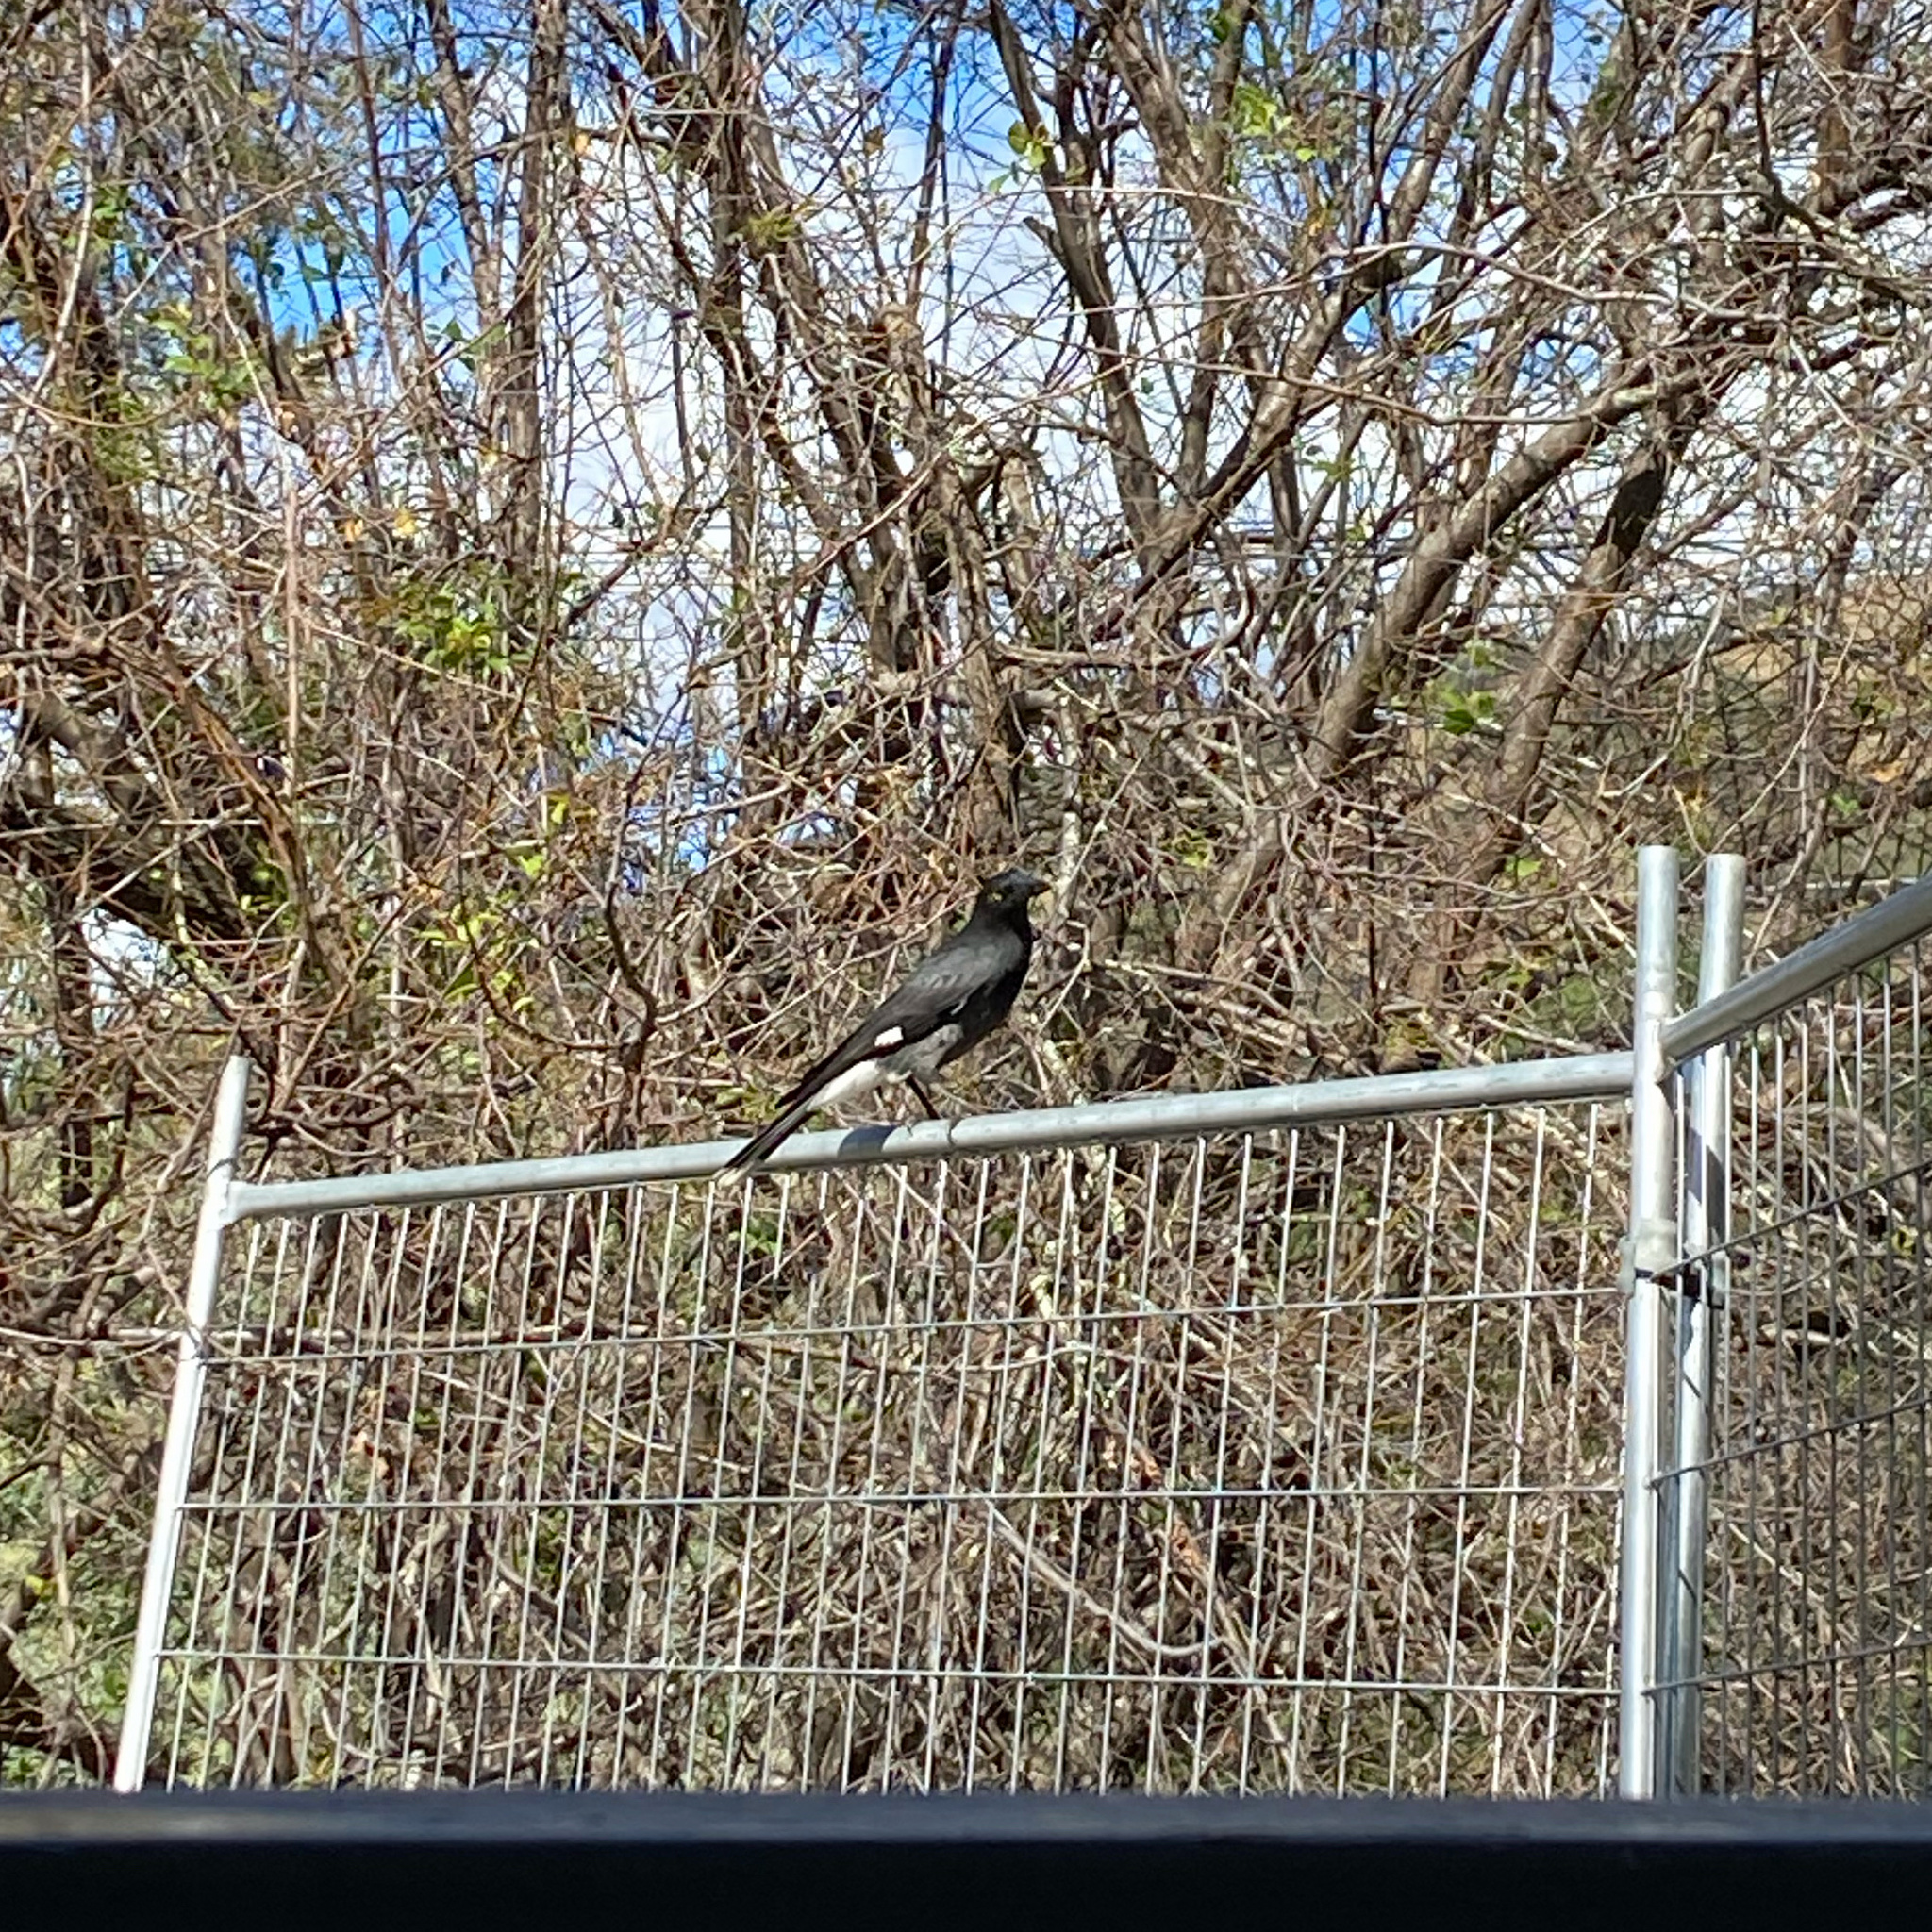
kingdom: Animalia
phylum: Chordata
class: Aves
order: Passeriformes
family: Cracticidae
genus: Strepera
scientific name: Strepera graculina
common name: Pied currawong
